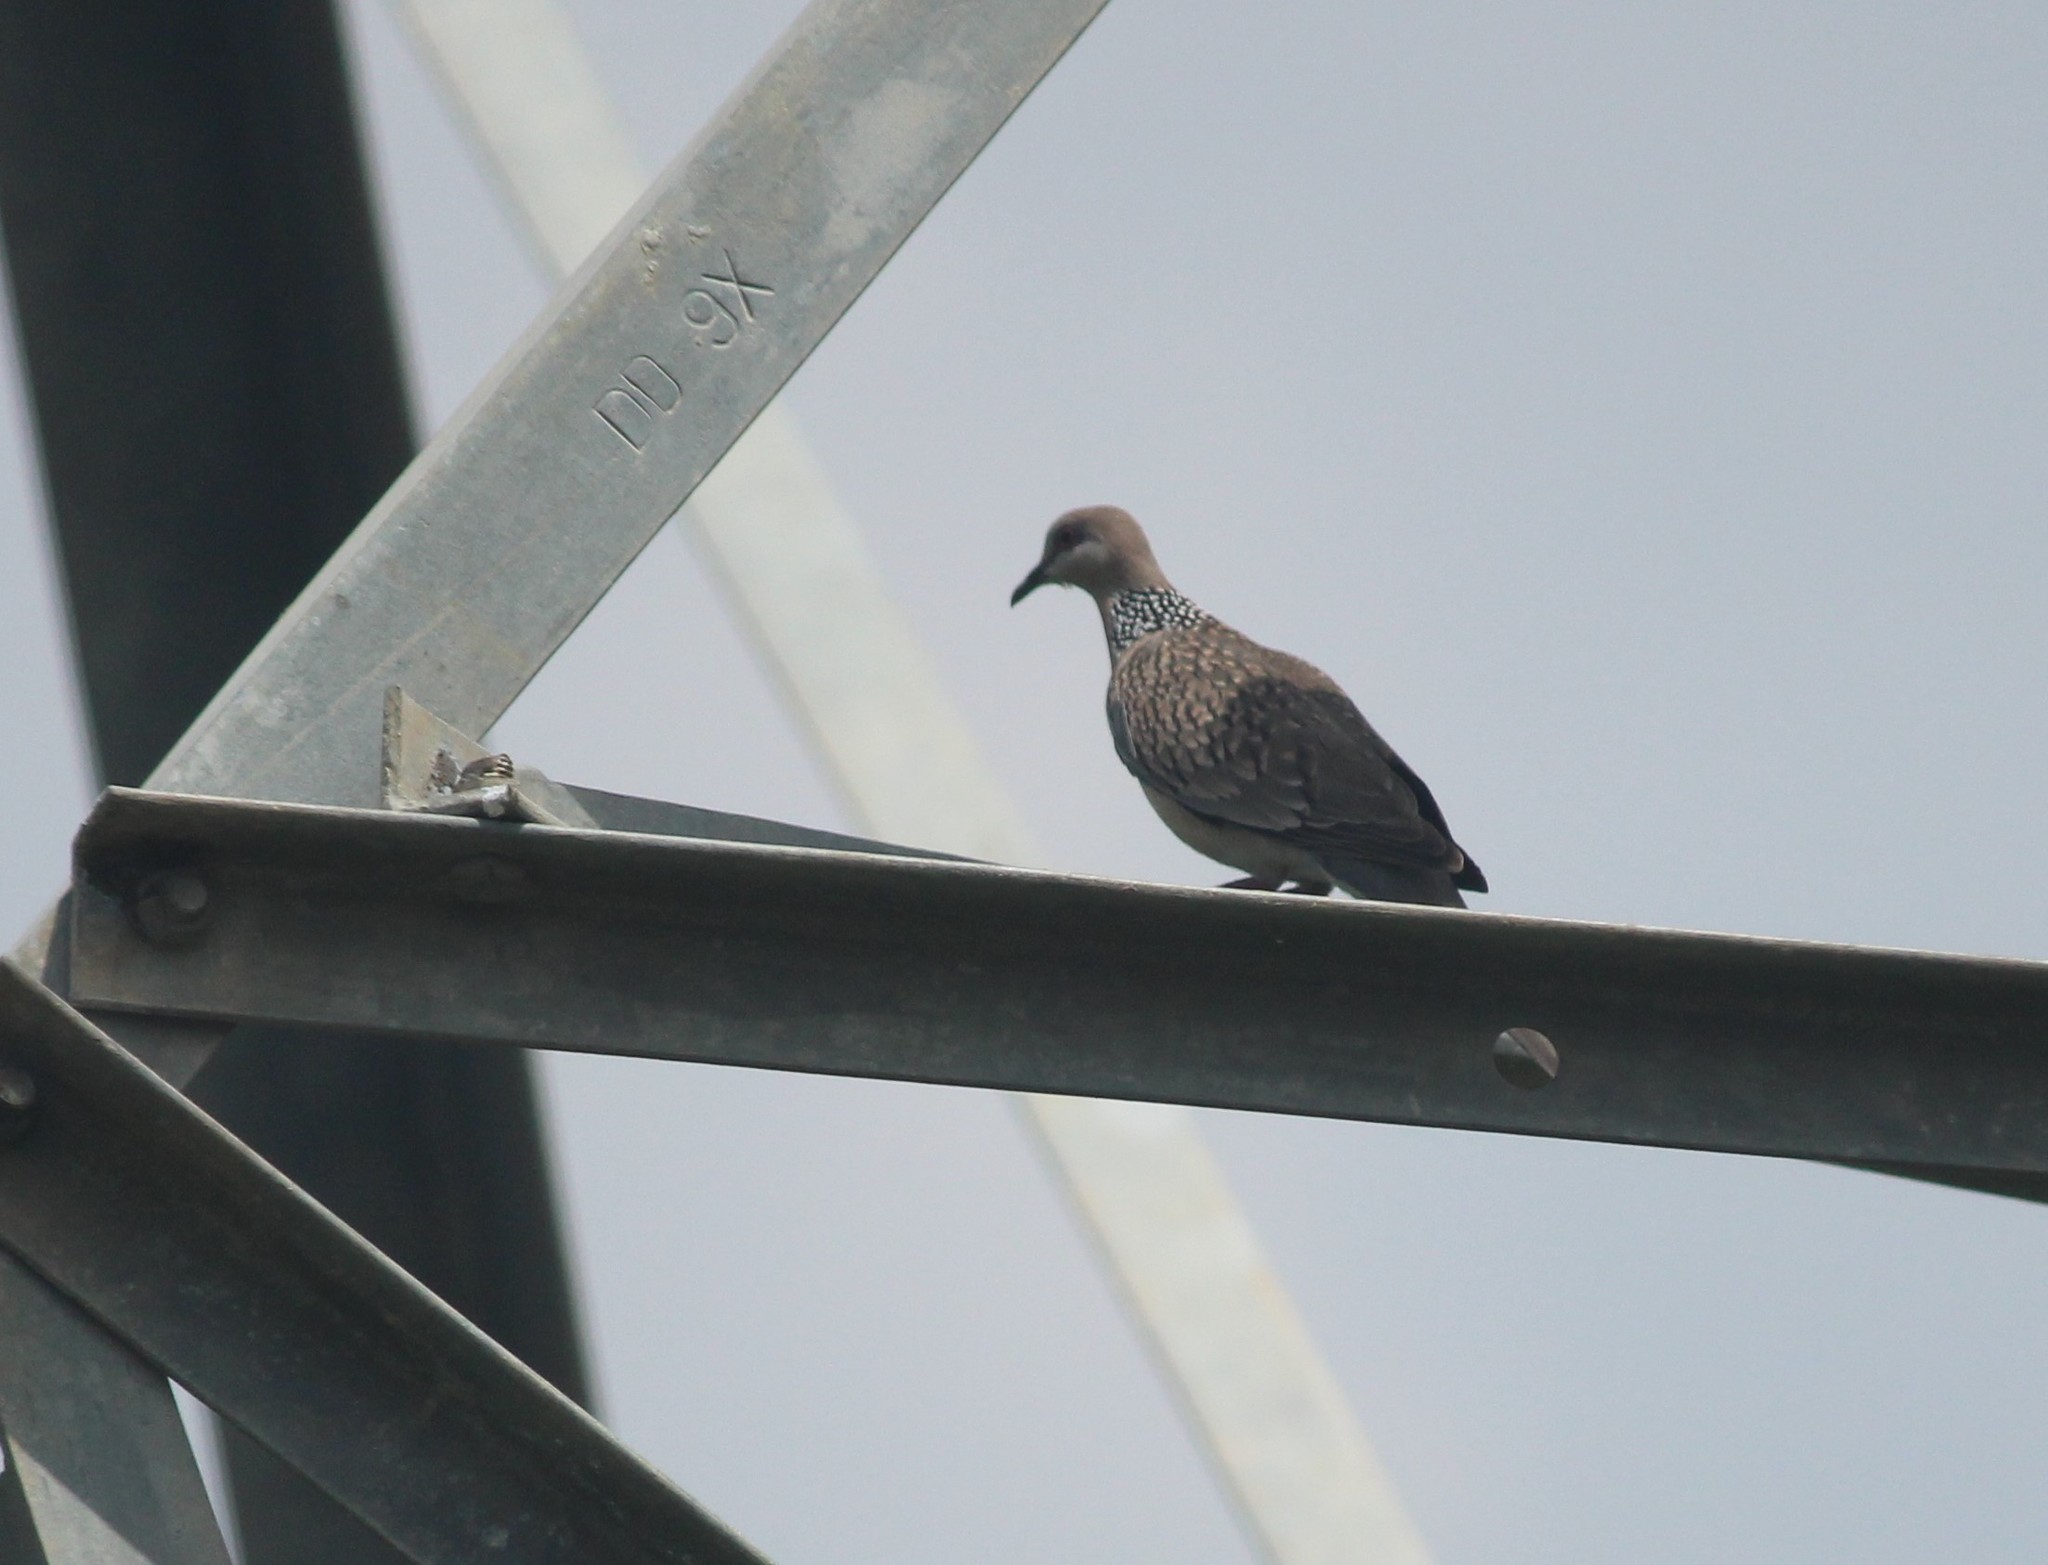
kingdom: Animalia
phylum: Chordata
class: Aves
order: Columbiformes
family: Columbidae
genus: Spilopelia
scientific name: Spilopelia chinensis
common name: Spotted dove
